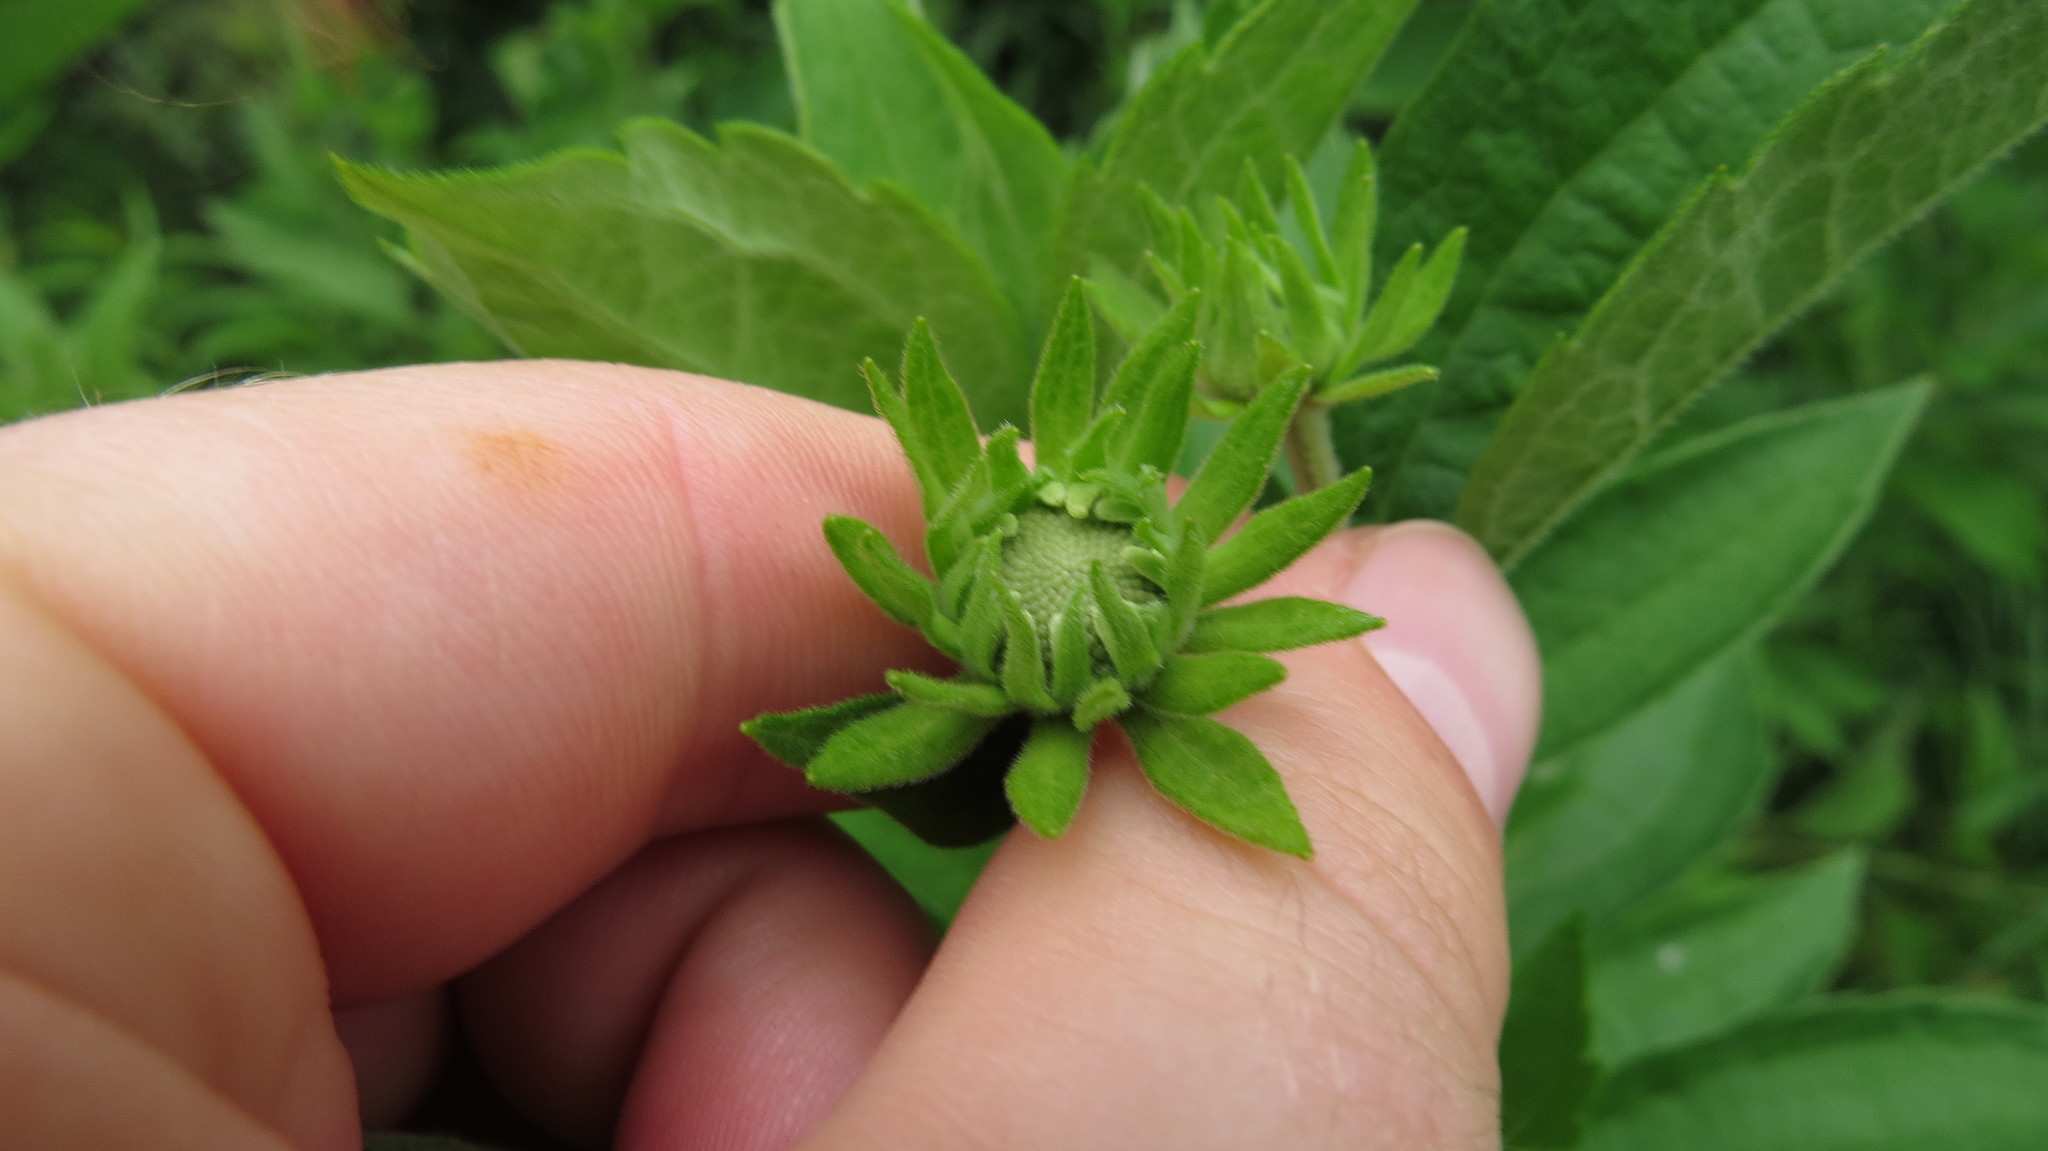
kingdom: Plantae
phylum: Tracheophyta
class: Magnoliopsida
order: Asterales
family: Asteraceae
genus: Rudbeckia
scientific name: Rudbeckia subtomentosa
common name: Sweet coneflower
